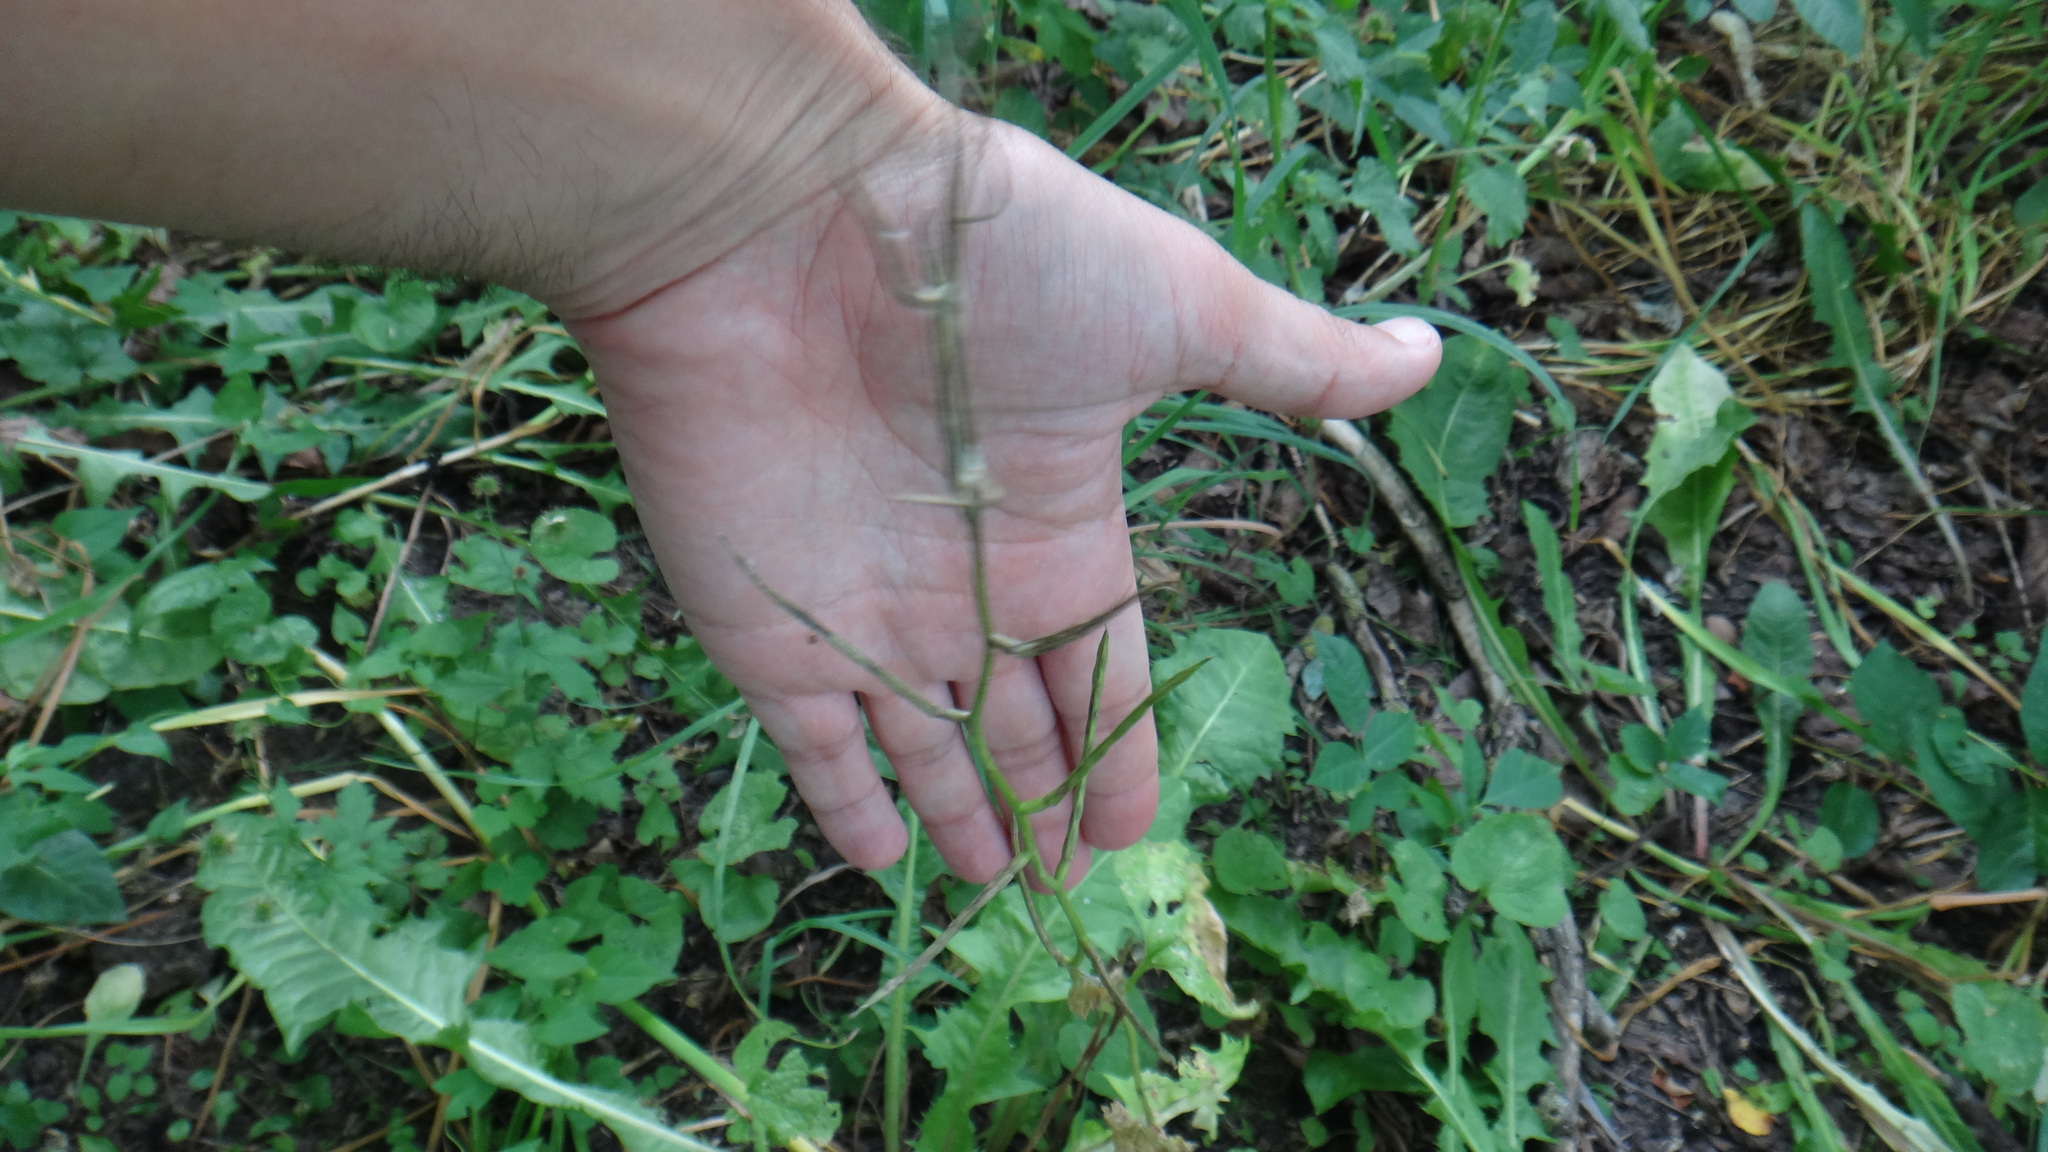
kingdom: Plantae
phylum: Tracheophyta
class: Magnoliopsida
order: Brassicales
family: Brassicaceae
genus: Alliaria
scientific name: Alliaria petiolata
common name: Garlic mustard
